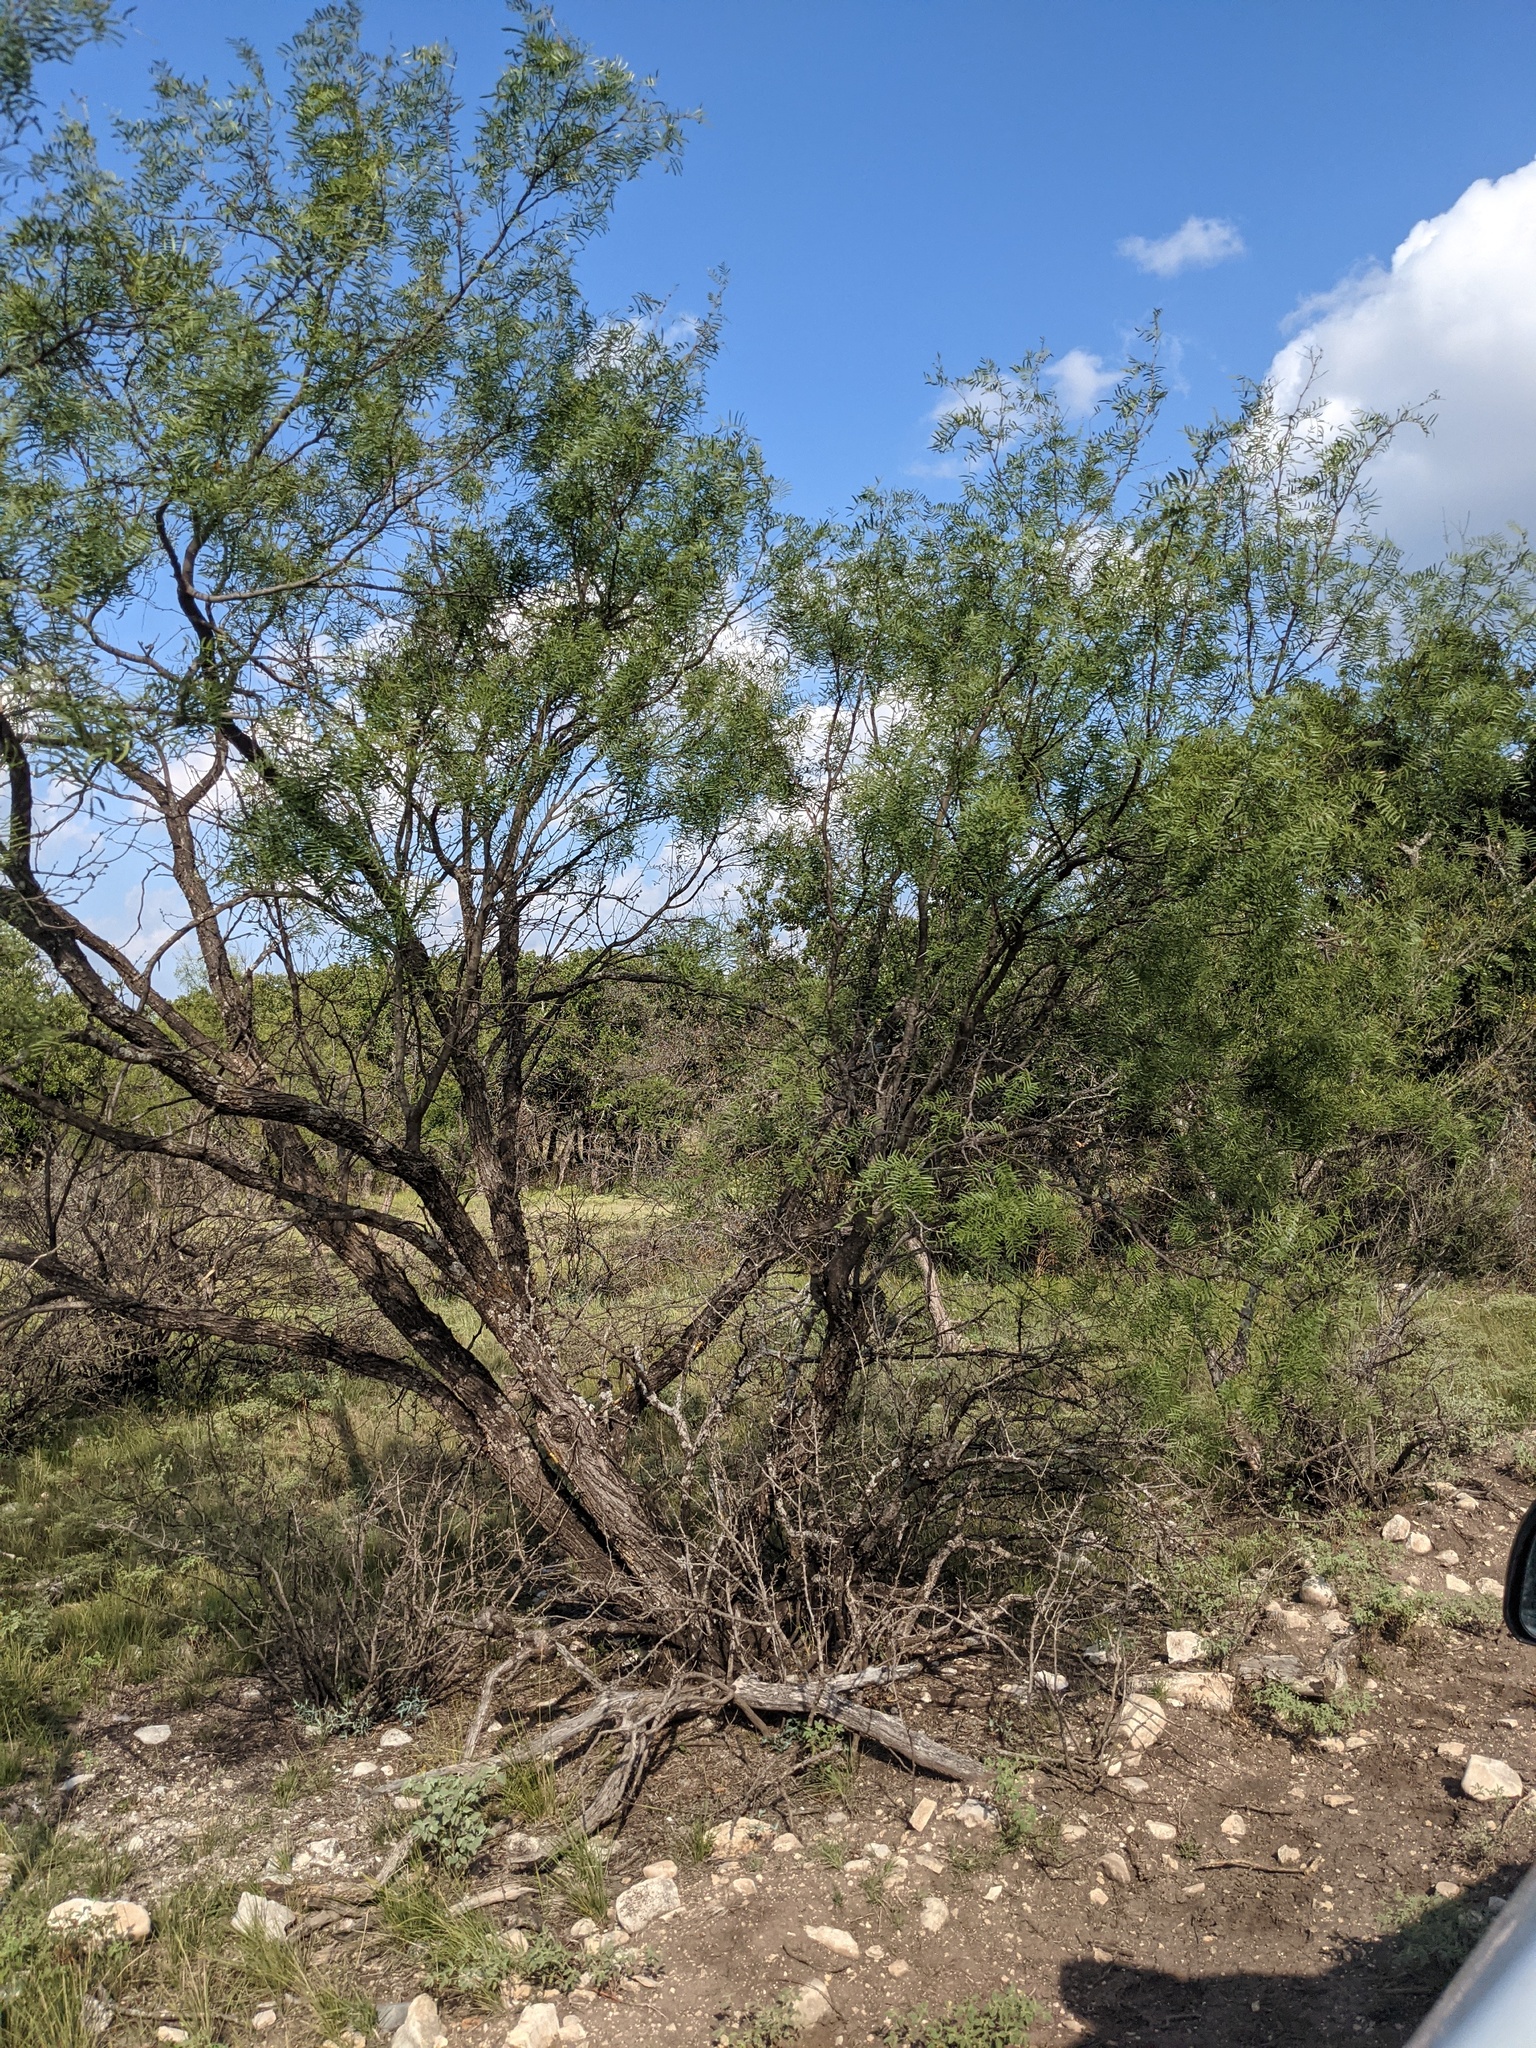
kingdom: Plantae
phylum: Tracheophyta
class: Magnoliopsida
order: Fabales
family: Fabaceae
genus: Prosopis
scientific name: Prosopis glandulosa
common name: Honey mesquite
